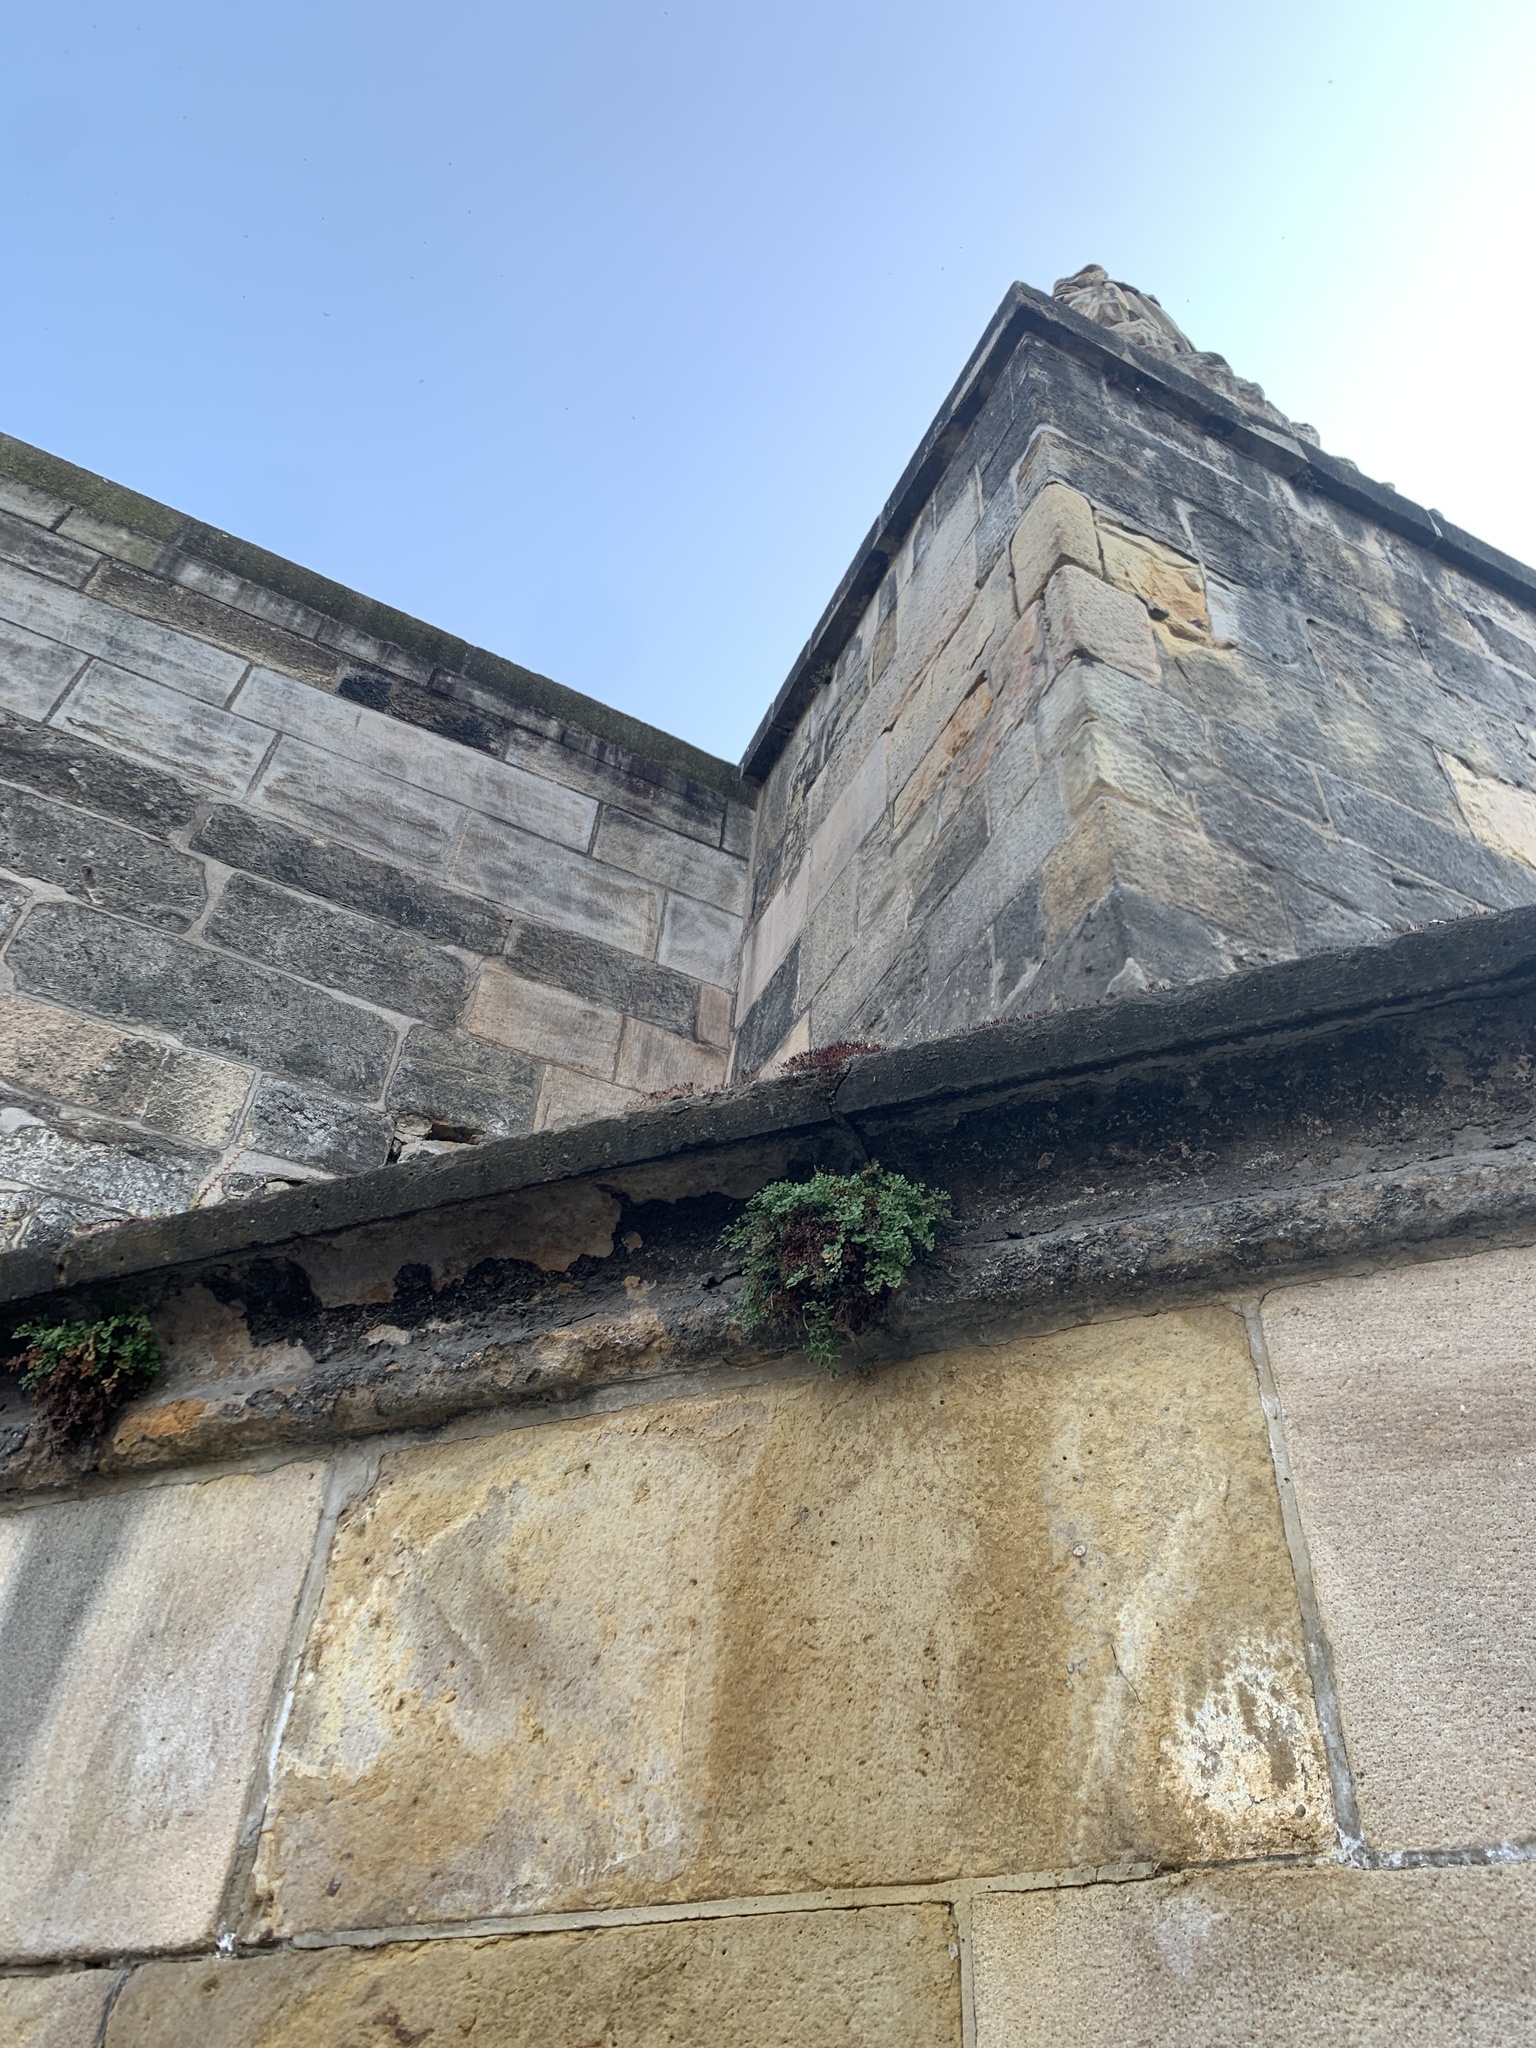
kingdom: Plantae
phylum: Tracheophyta
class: Polypodiopsida
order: Polypodiales
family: Aspleniaceae
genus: Asplenium
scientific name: Asplenium ruta-muraria
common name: Wall-rue
